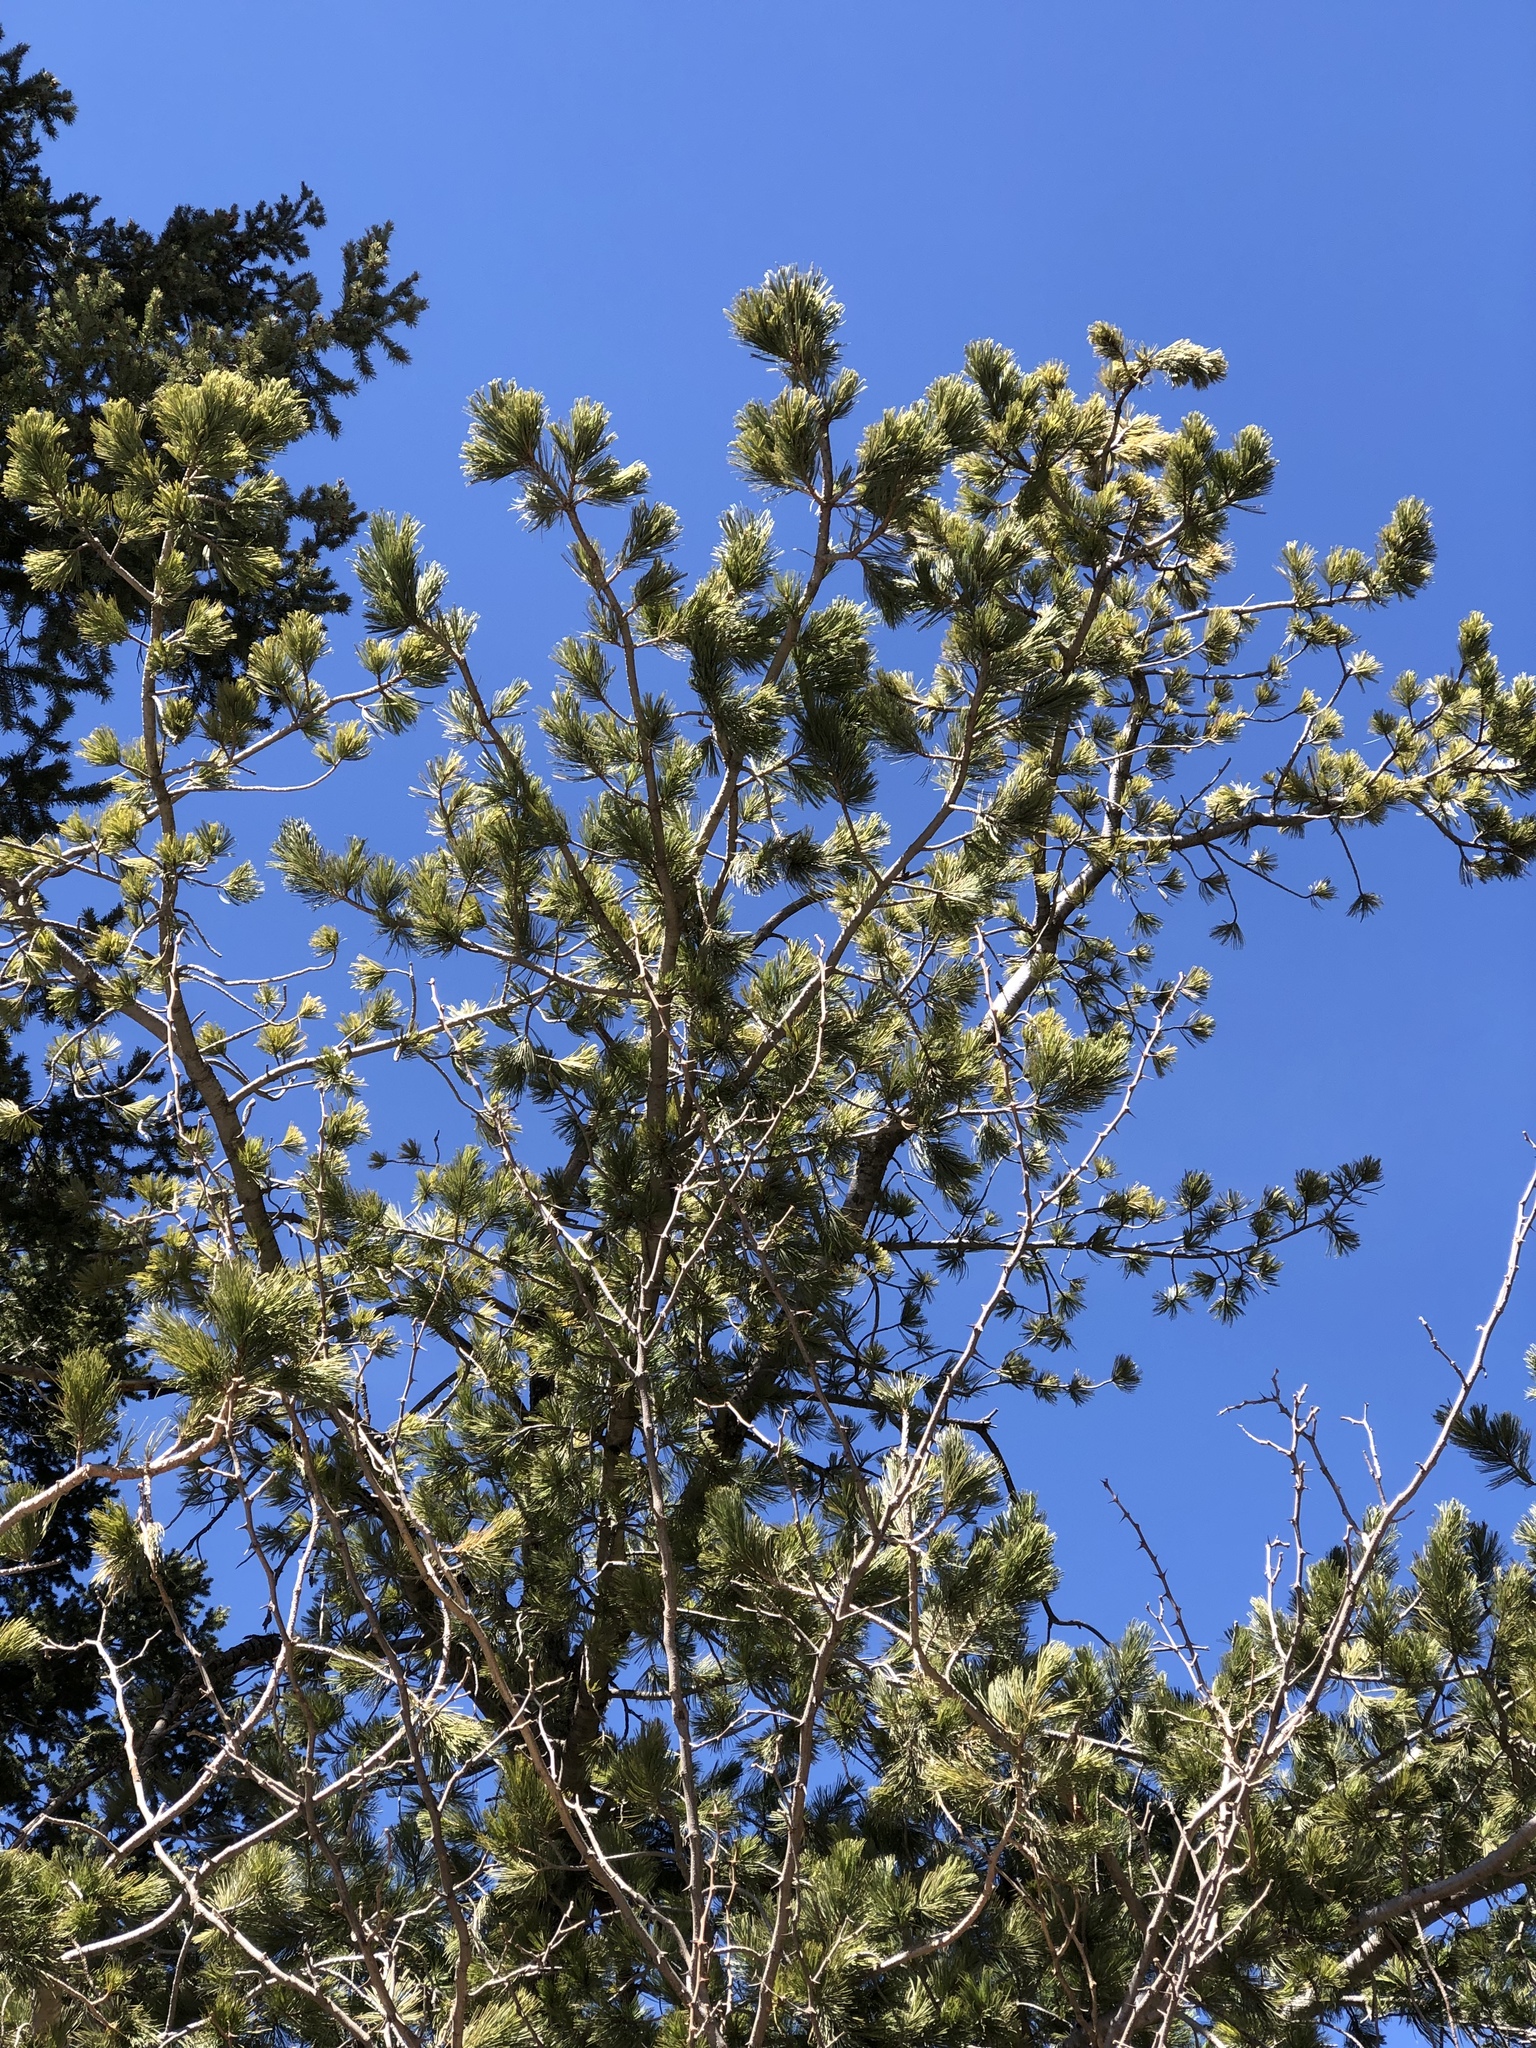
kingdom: Plantae
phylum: Tracheophyta
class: Pinopsida
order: Pinales
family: Pinaceae
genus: Pinus
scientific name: Pinus strobiformis
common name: Southwestern white pine
